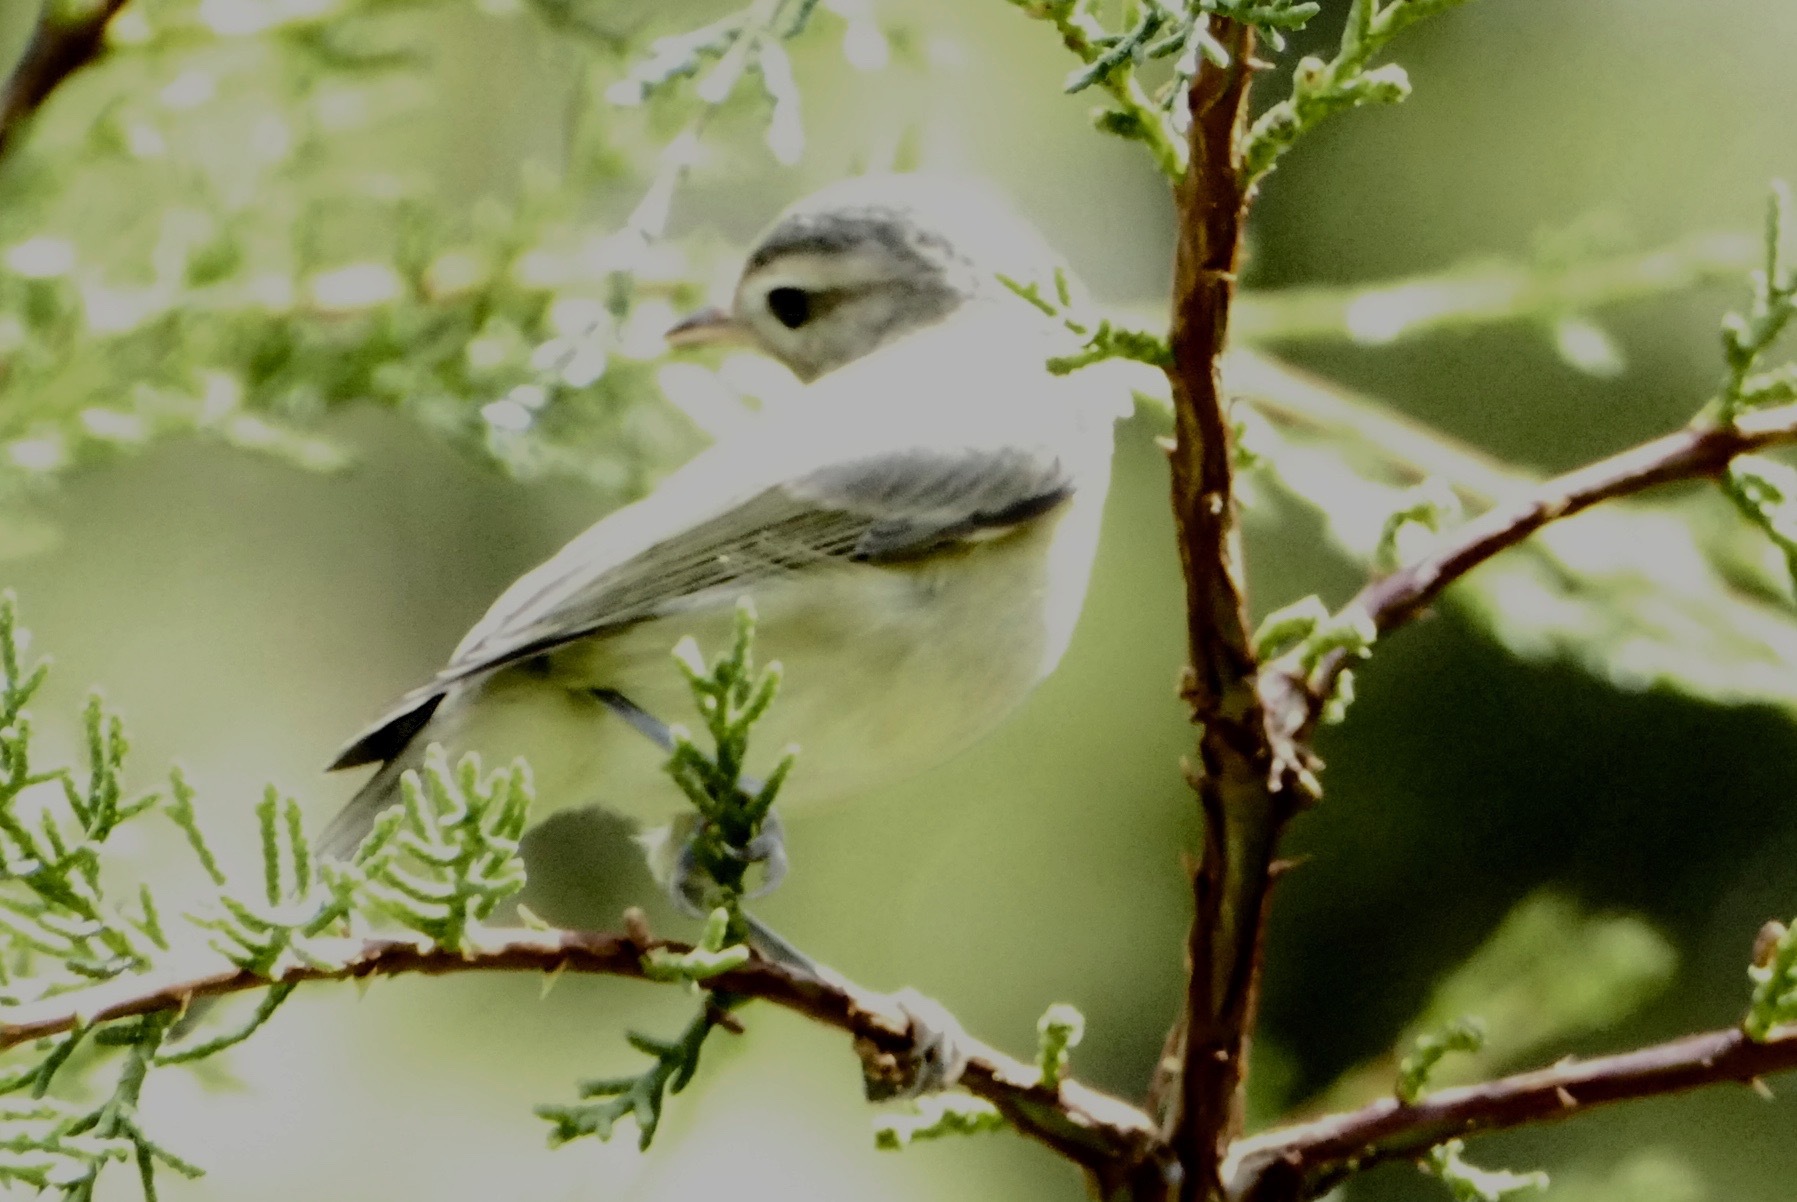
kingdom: Animalia
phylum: Chordata
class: Aves
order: Passeriformes
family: Vireonidae
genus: Vireo
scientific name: Vireo gilvus
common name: Warbling vireo
